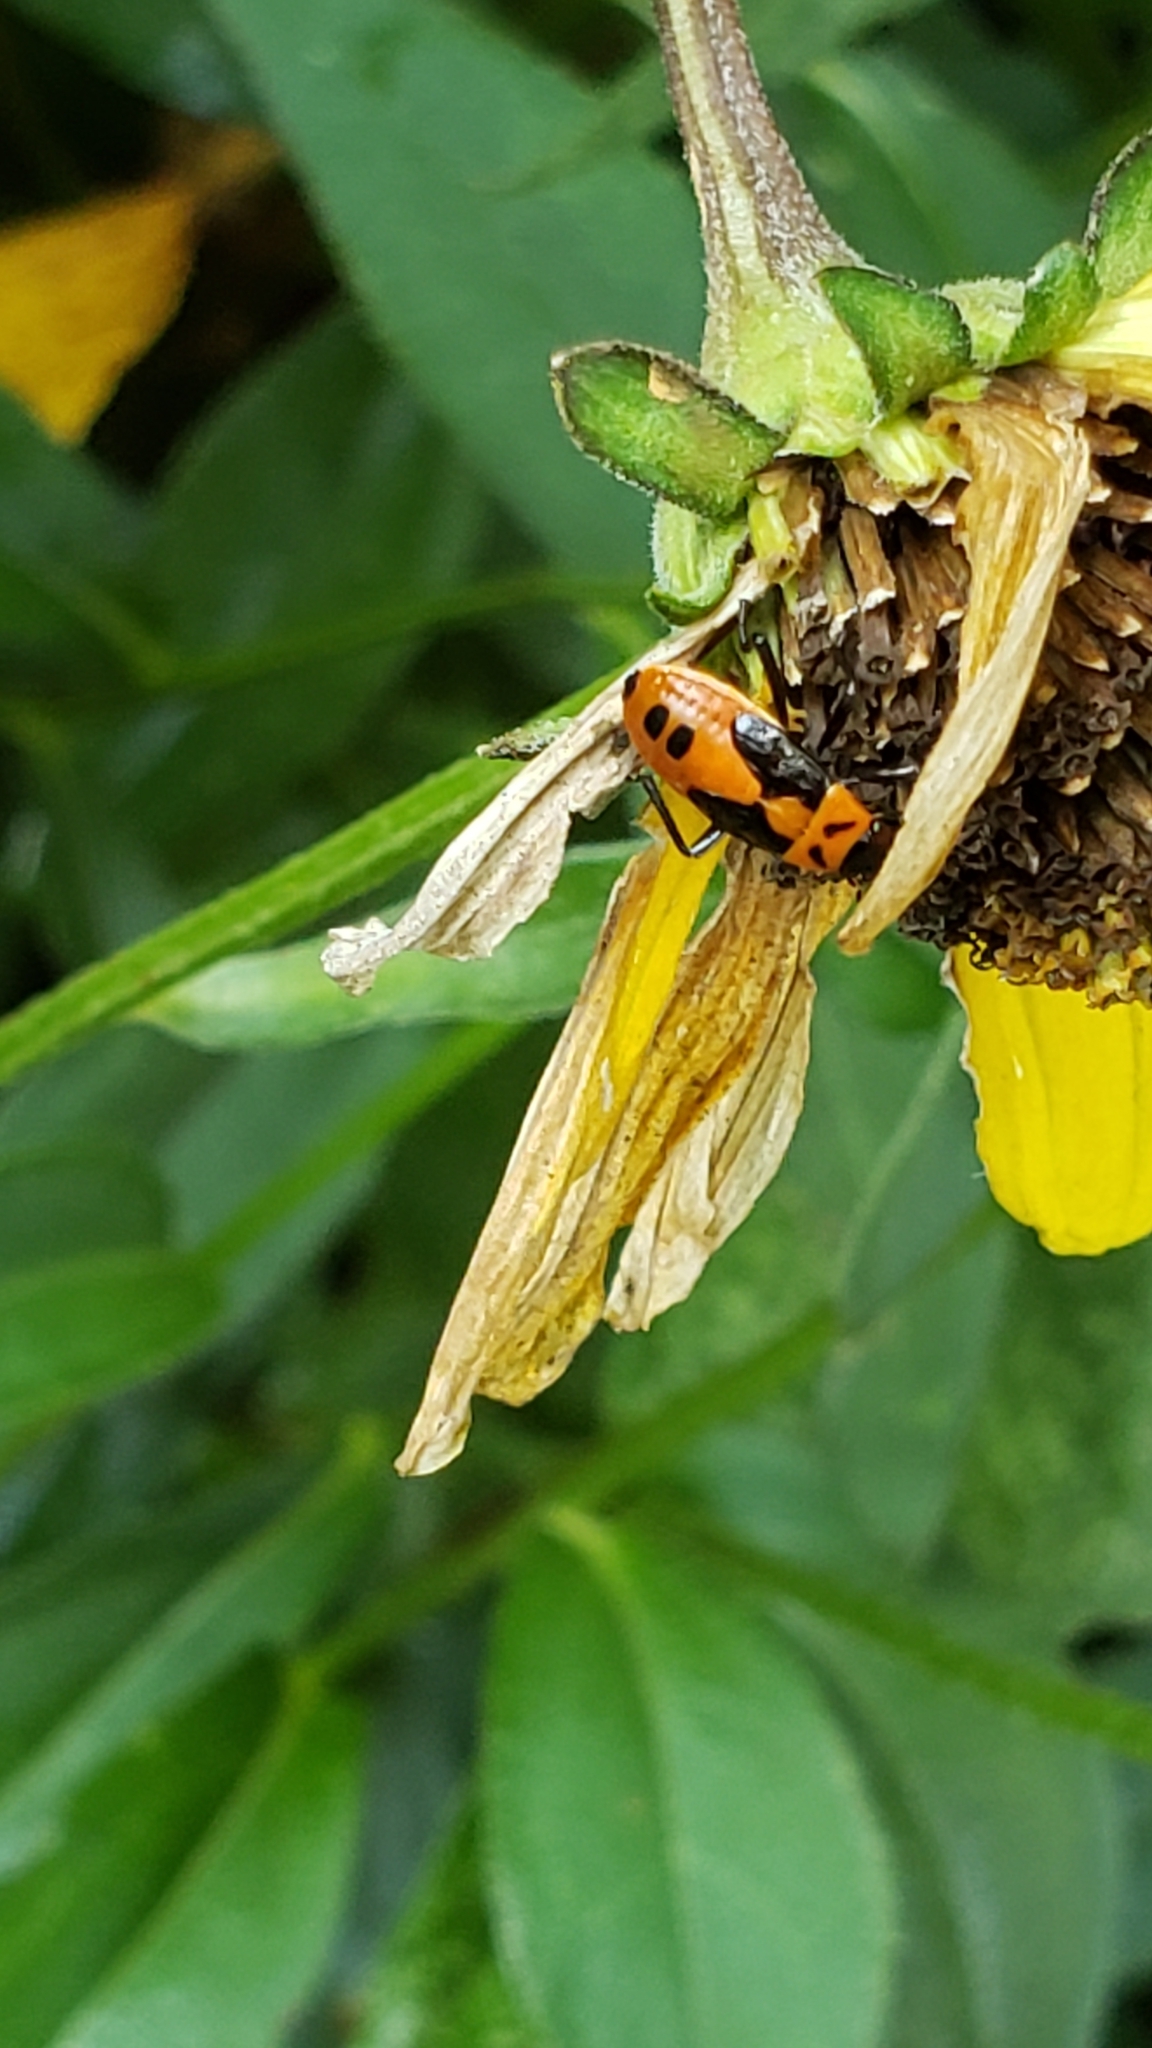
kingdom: Animalia
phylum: Arthropoda
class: Insecta
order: Hemiptera
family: Lygaeidae
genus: Lygaeus
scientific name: Lygaeus turcicus
